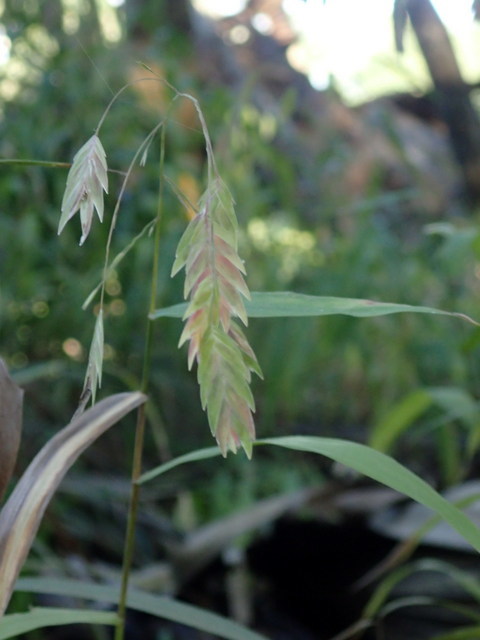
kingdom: Plantae
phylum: Tracheophyta
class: Liliopsida
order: Poales
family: Poaceae
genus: Chasmanthium
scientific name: Chasmanthium latifolium
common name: Broad-leaved chasmanthium
